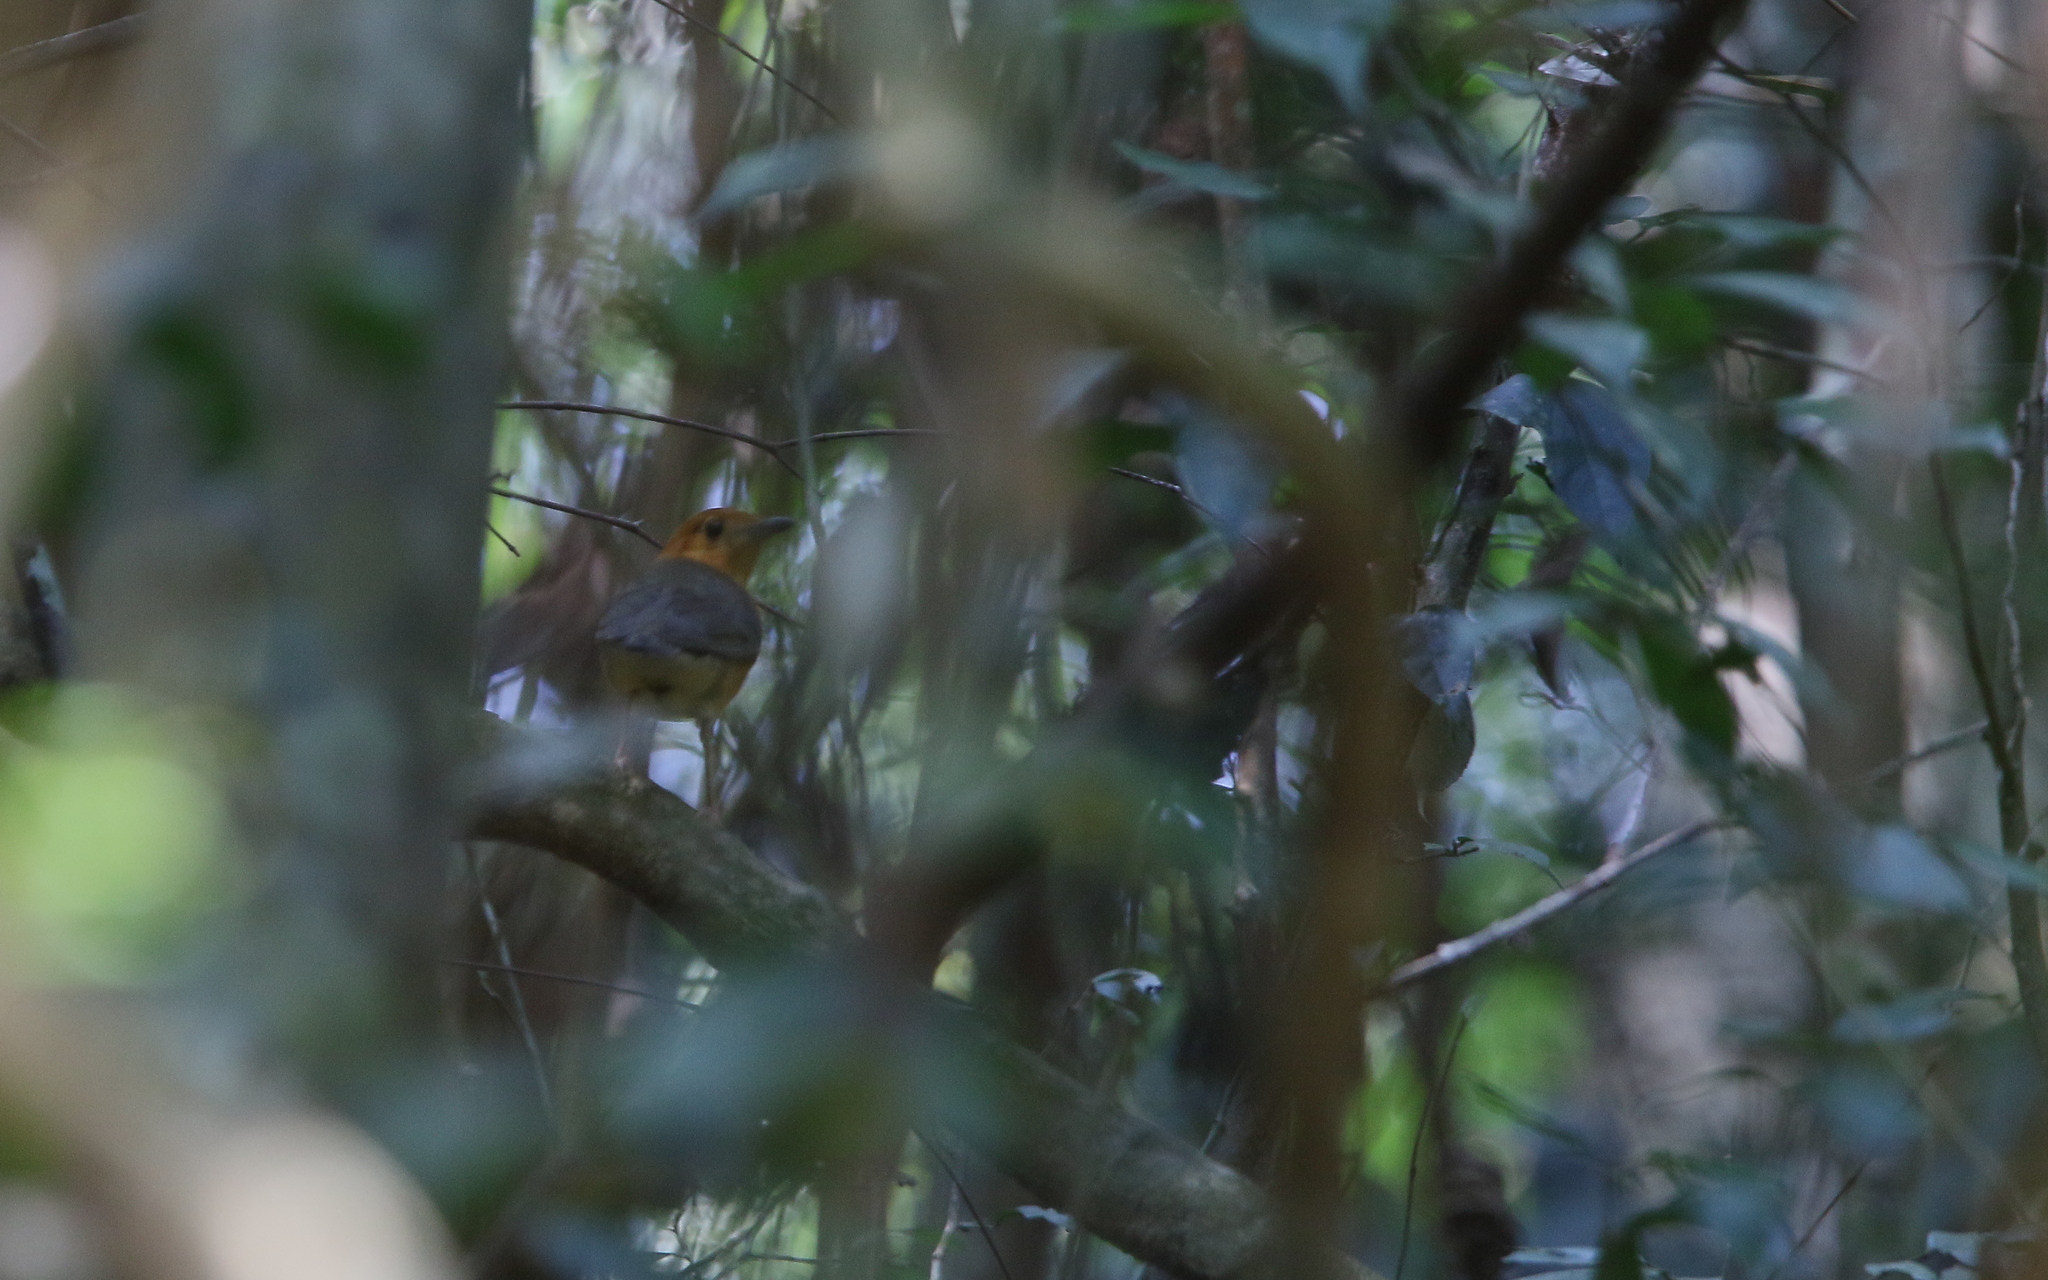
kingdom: Animalia
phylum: Chordata
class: Aves
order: Passeriformes
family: Turdidae
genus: Geokichla
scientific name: Geokichla citrina
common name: Orange-headed thrush
